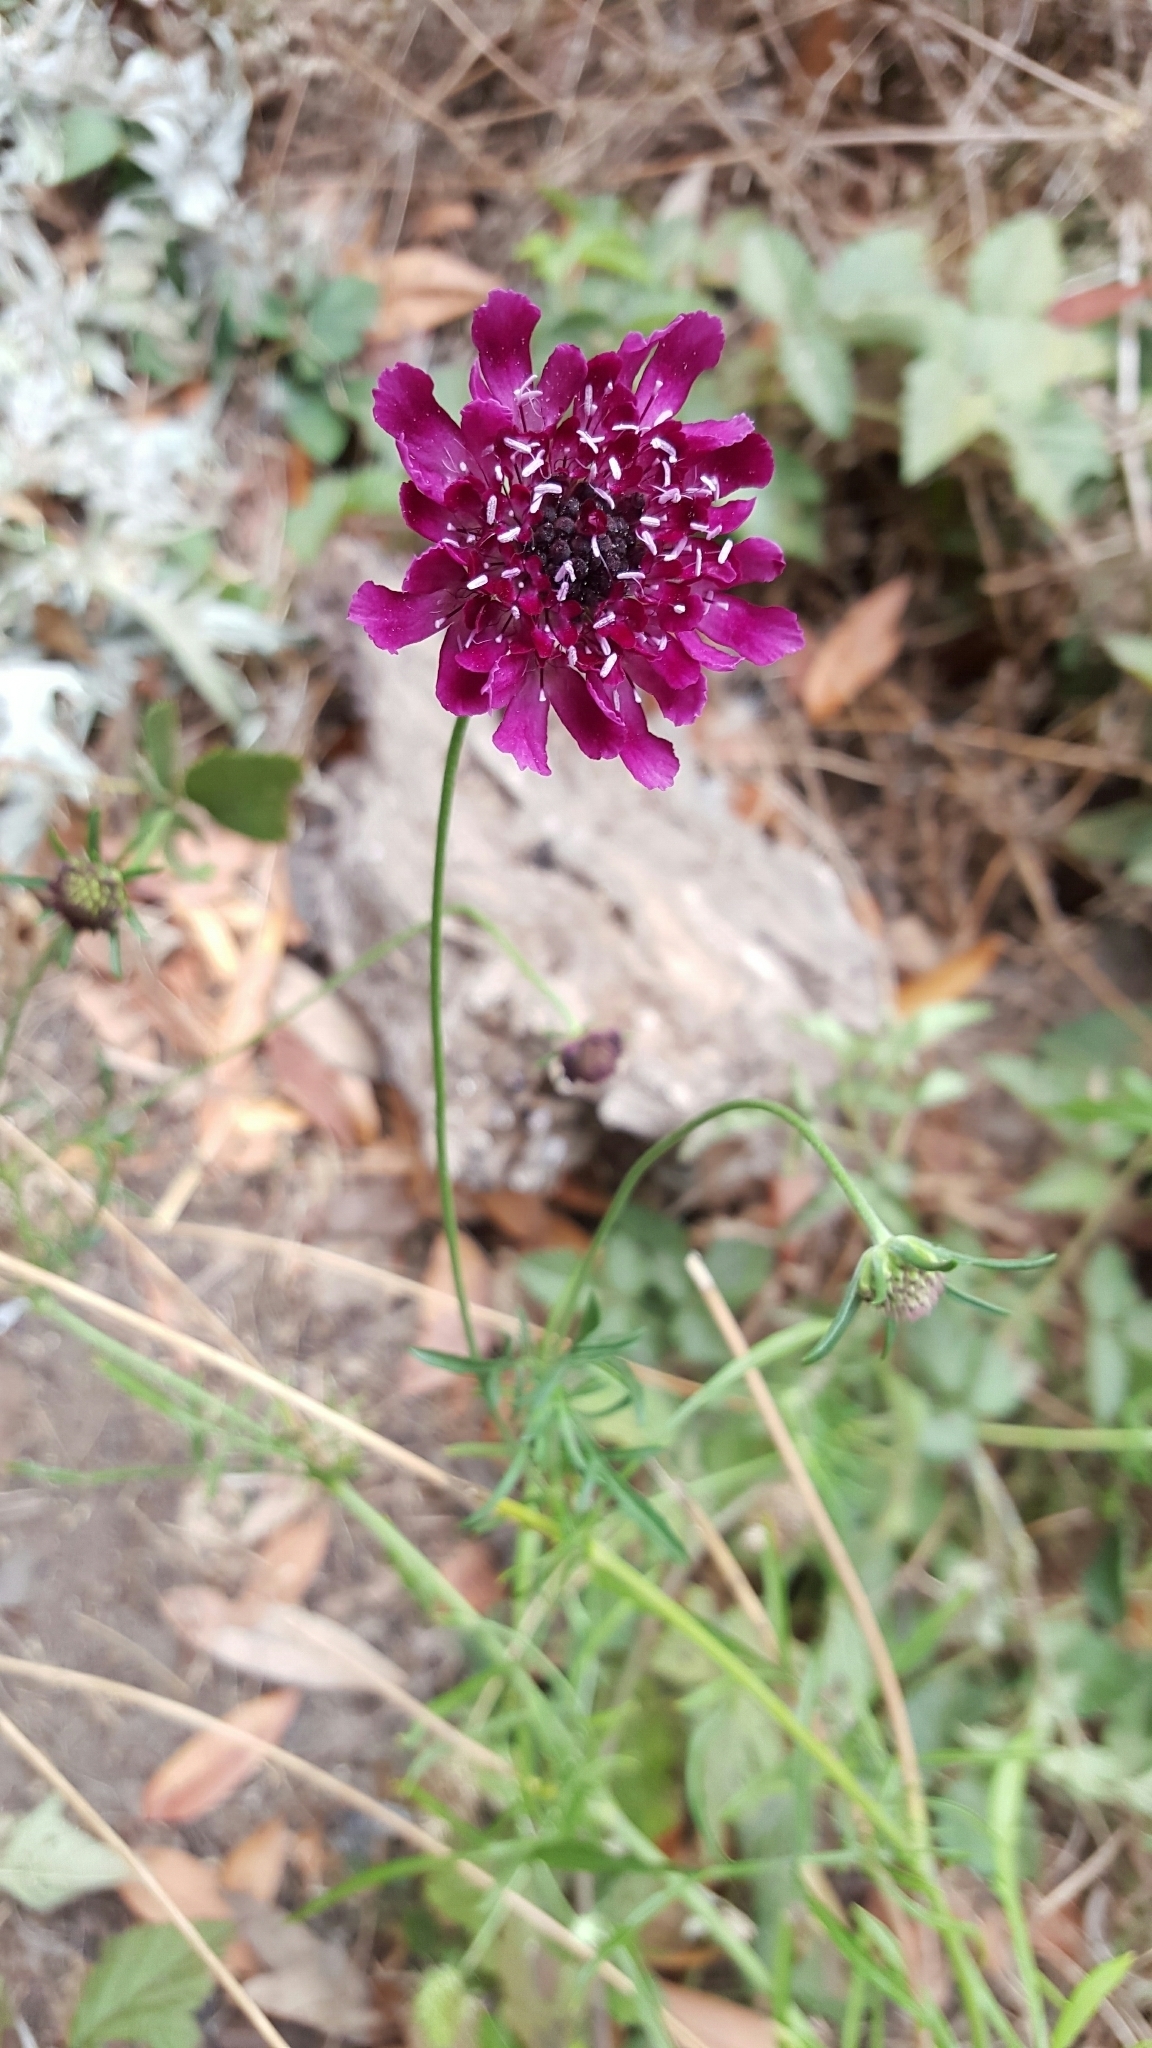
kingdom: Plantae
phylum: Tracheophyta
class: Magnoliopsida
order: Dipsacales
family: Caprifoliaceae
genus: Sixalix
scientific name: Sixalix atropurpurea
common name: Sweet scabious
